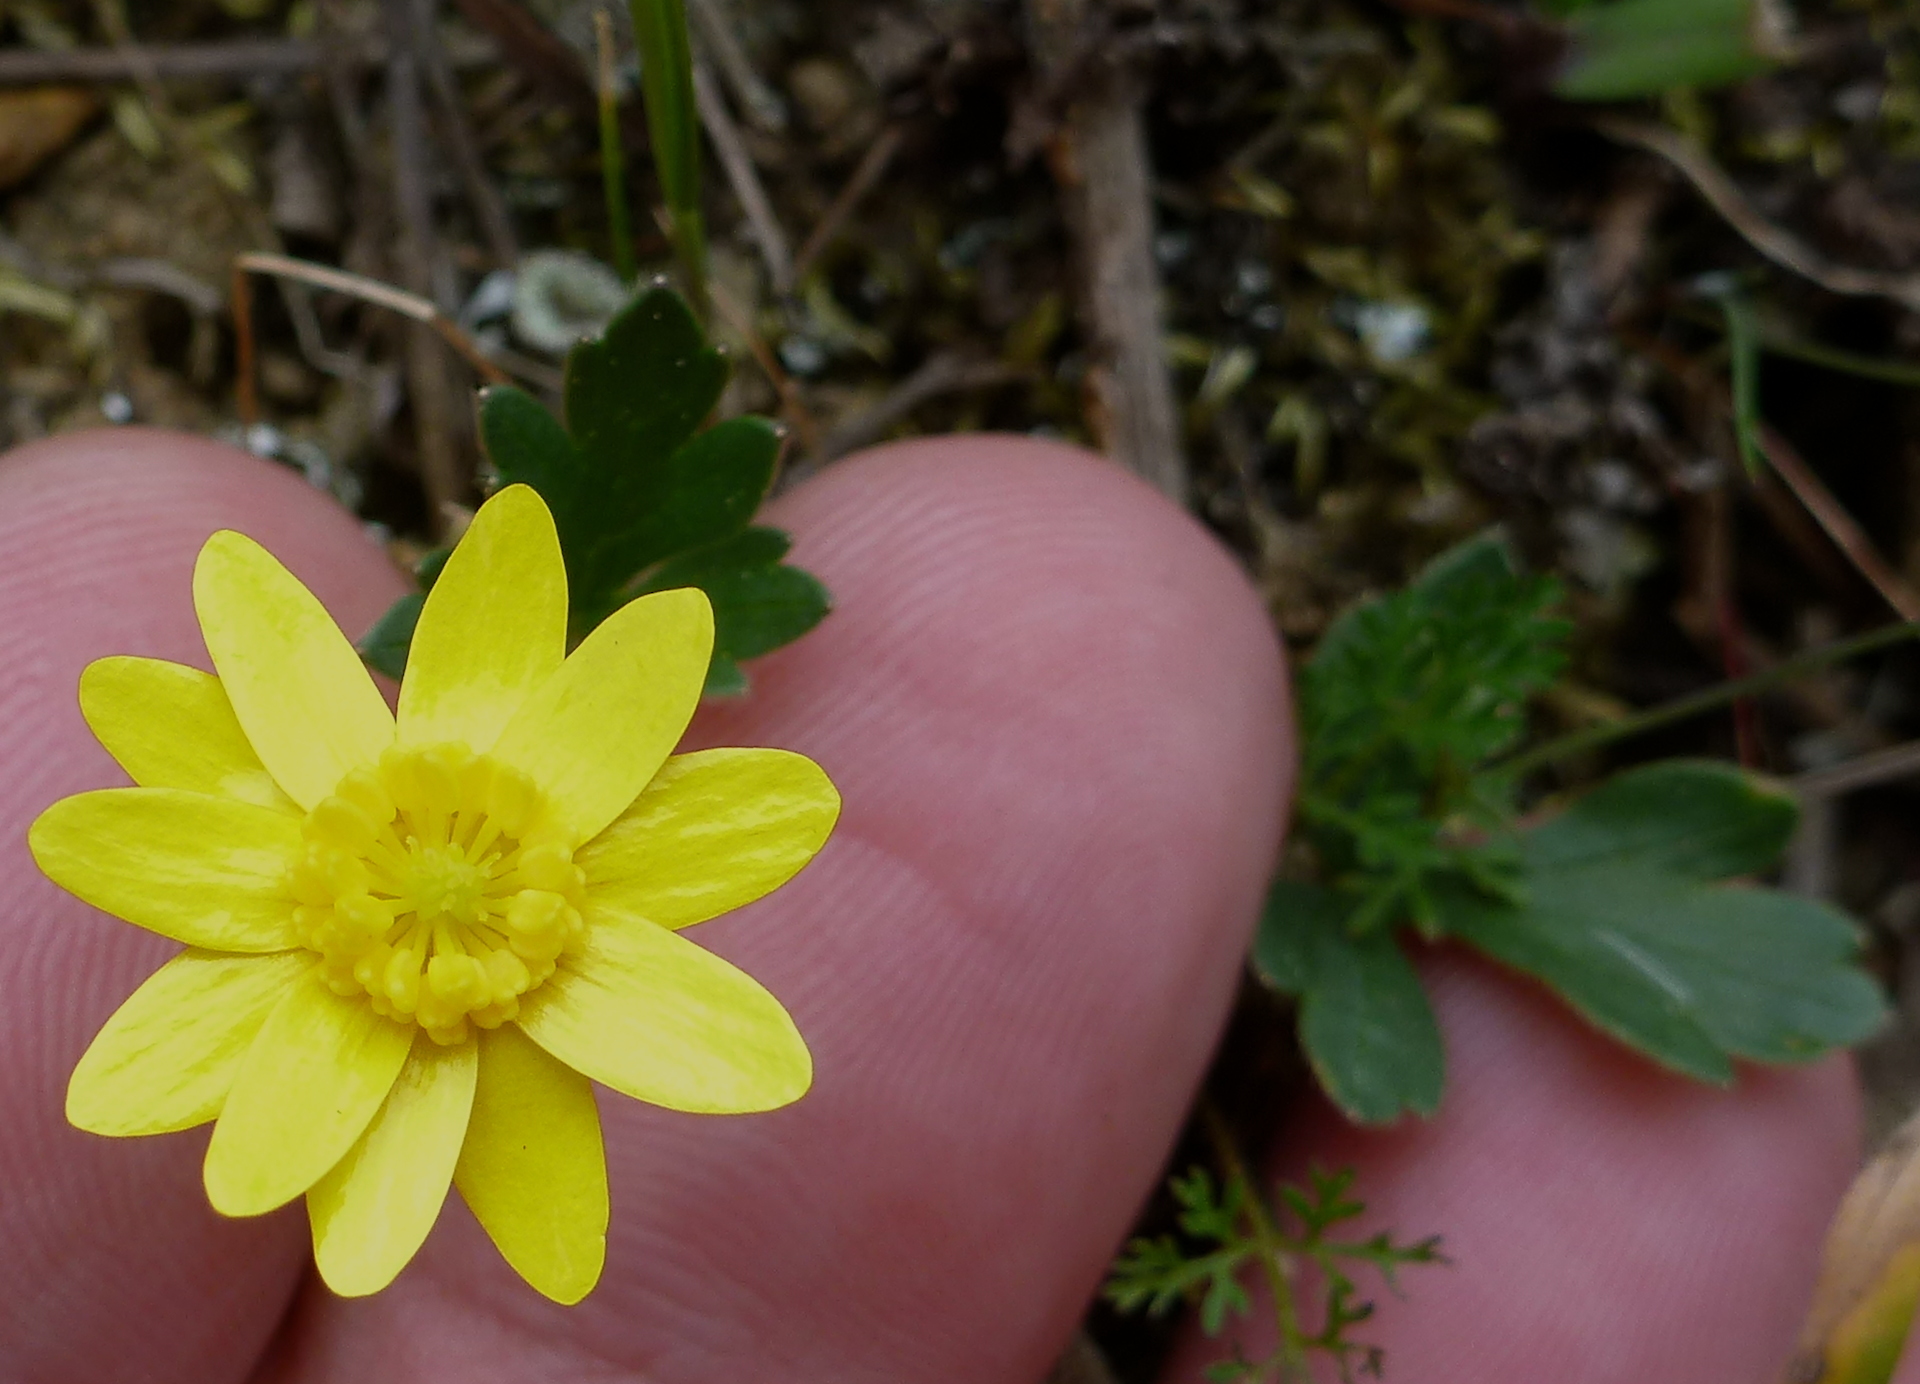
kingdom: Plantae
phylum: Tracheophyta
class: Magnoliopsida
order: Ranunculales
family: Ranunculaceae
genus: Ranunculus
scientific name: Ranunculus californicus
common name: California buttercup
